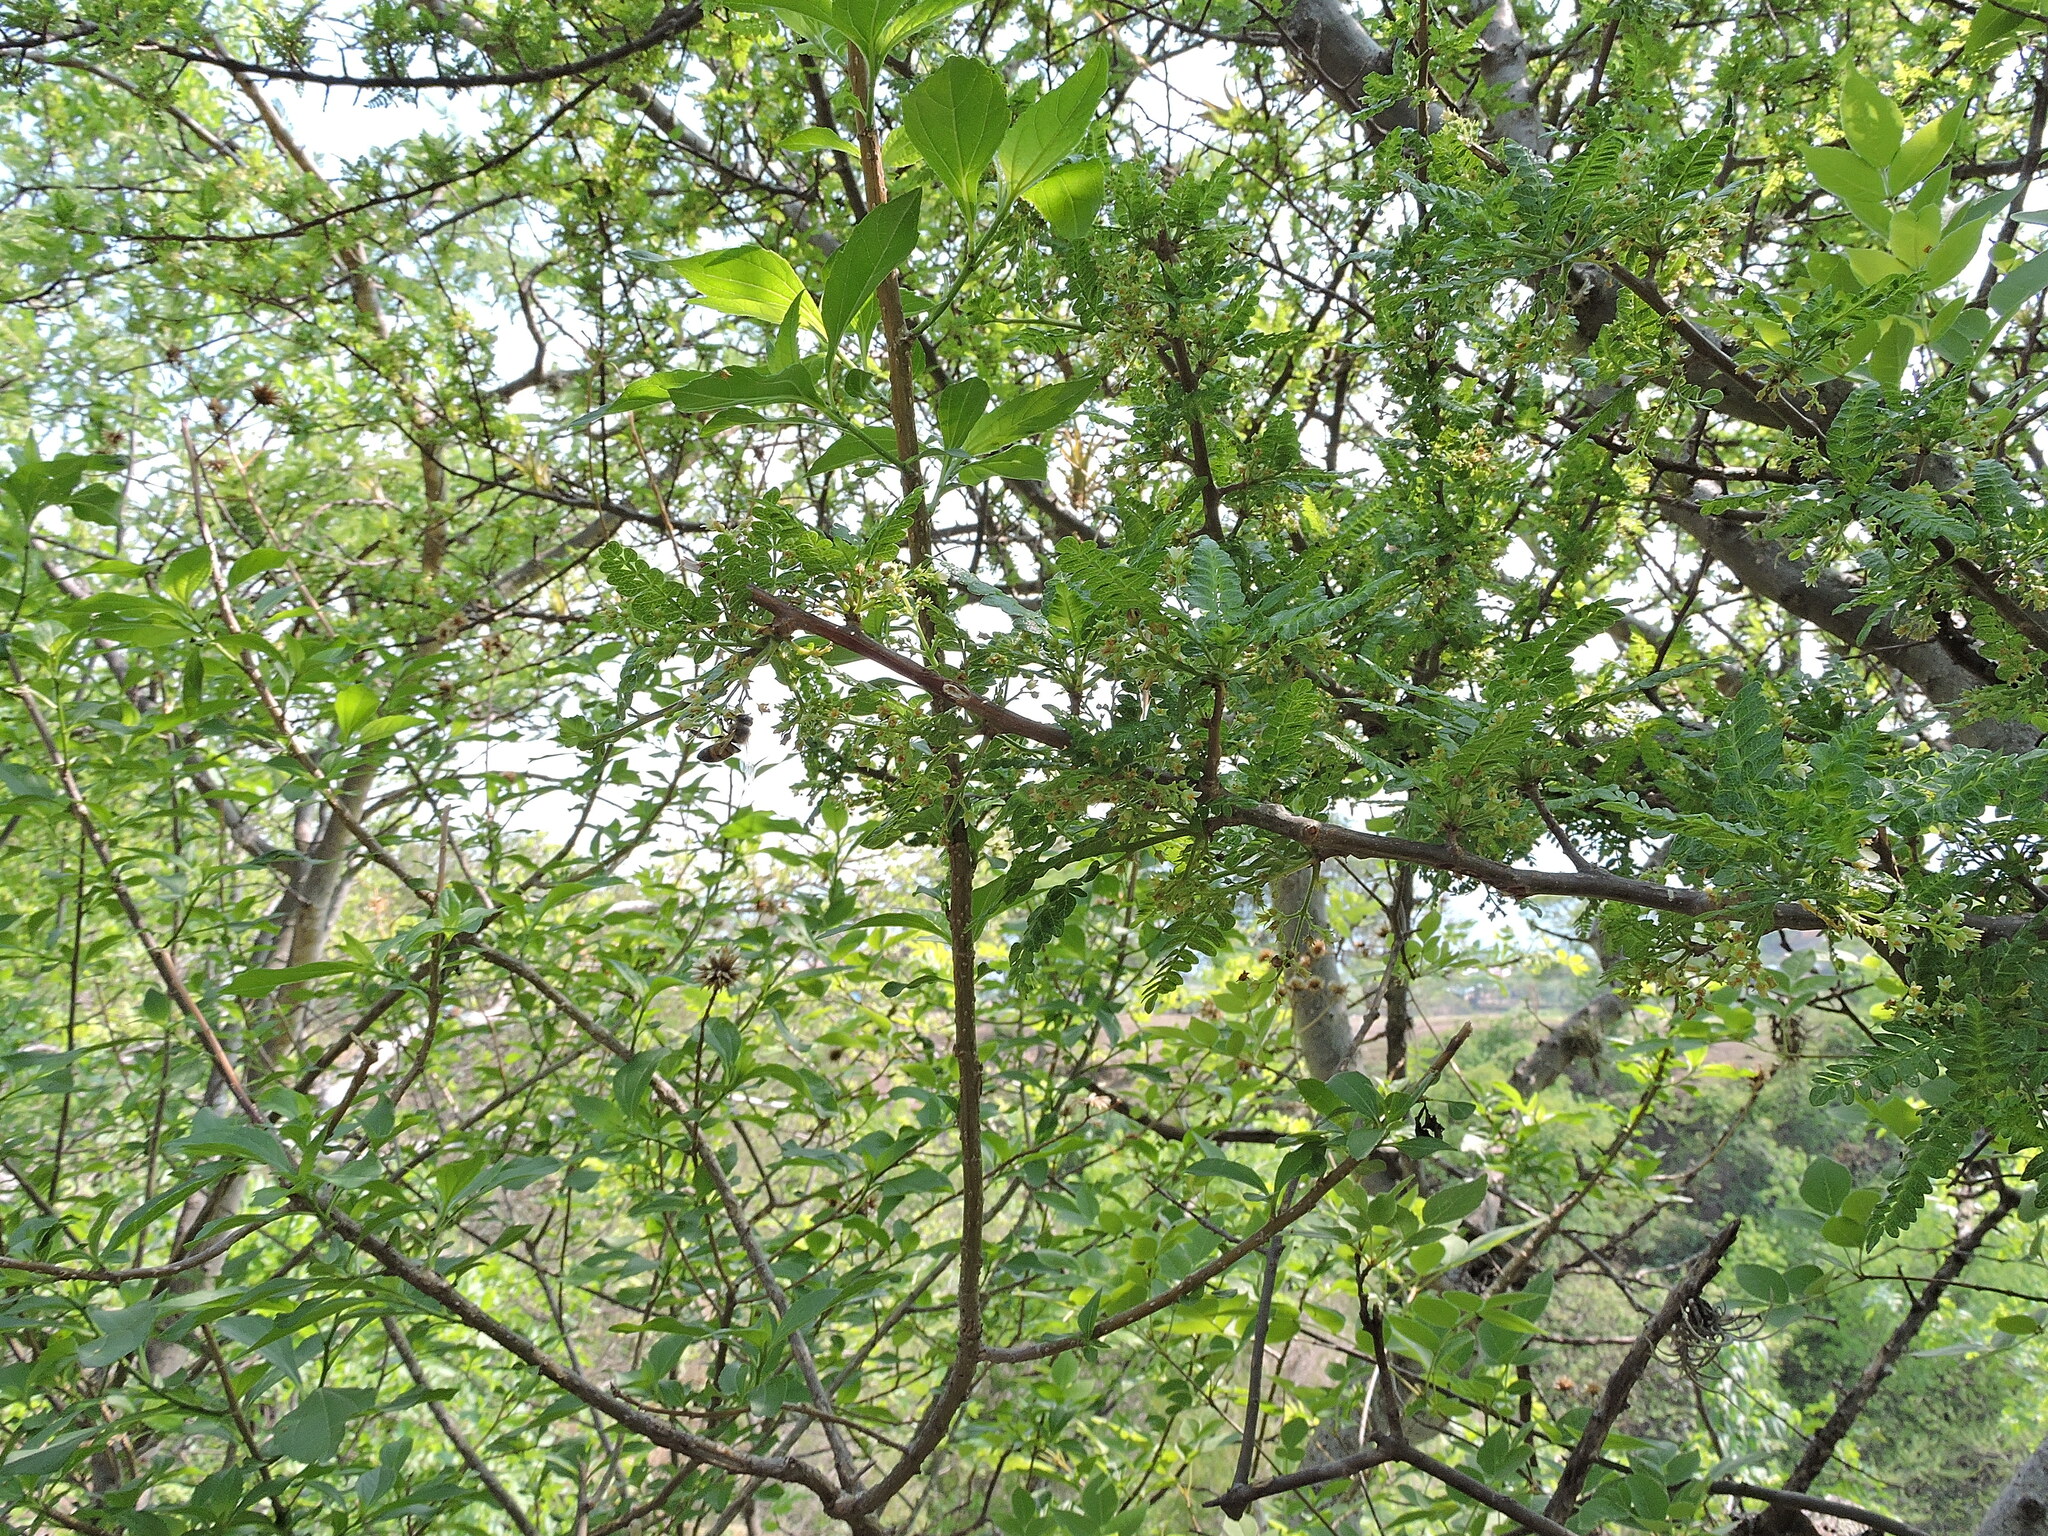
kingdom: Plantae
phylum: Tracheophyta
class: Magnoliopsida
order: Sapindales
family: Burseraceae
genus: Bursera
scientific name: Bursera bipinnata
